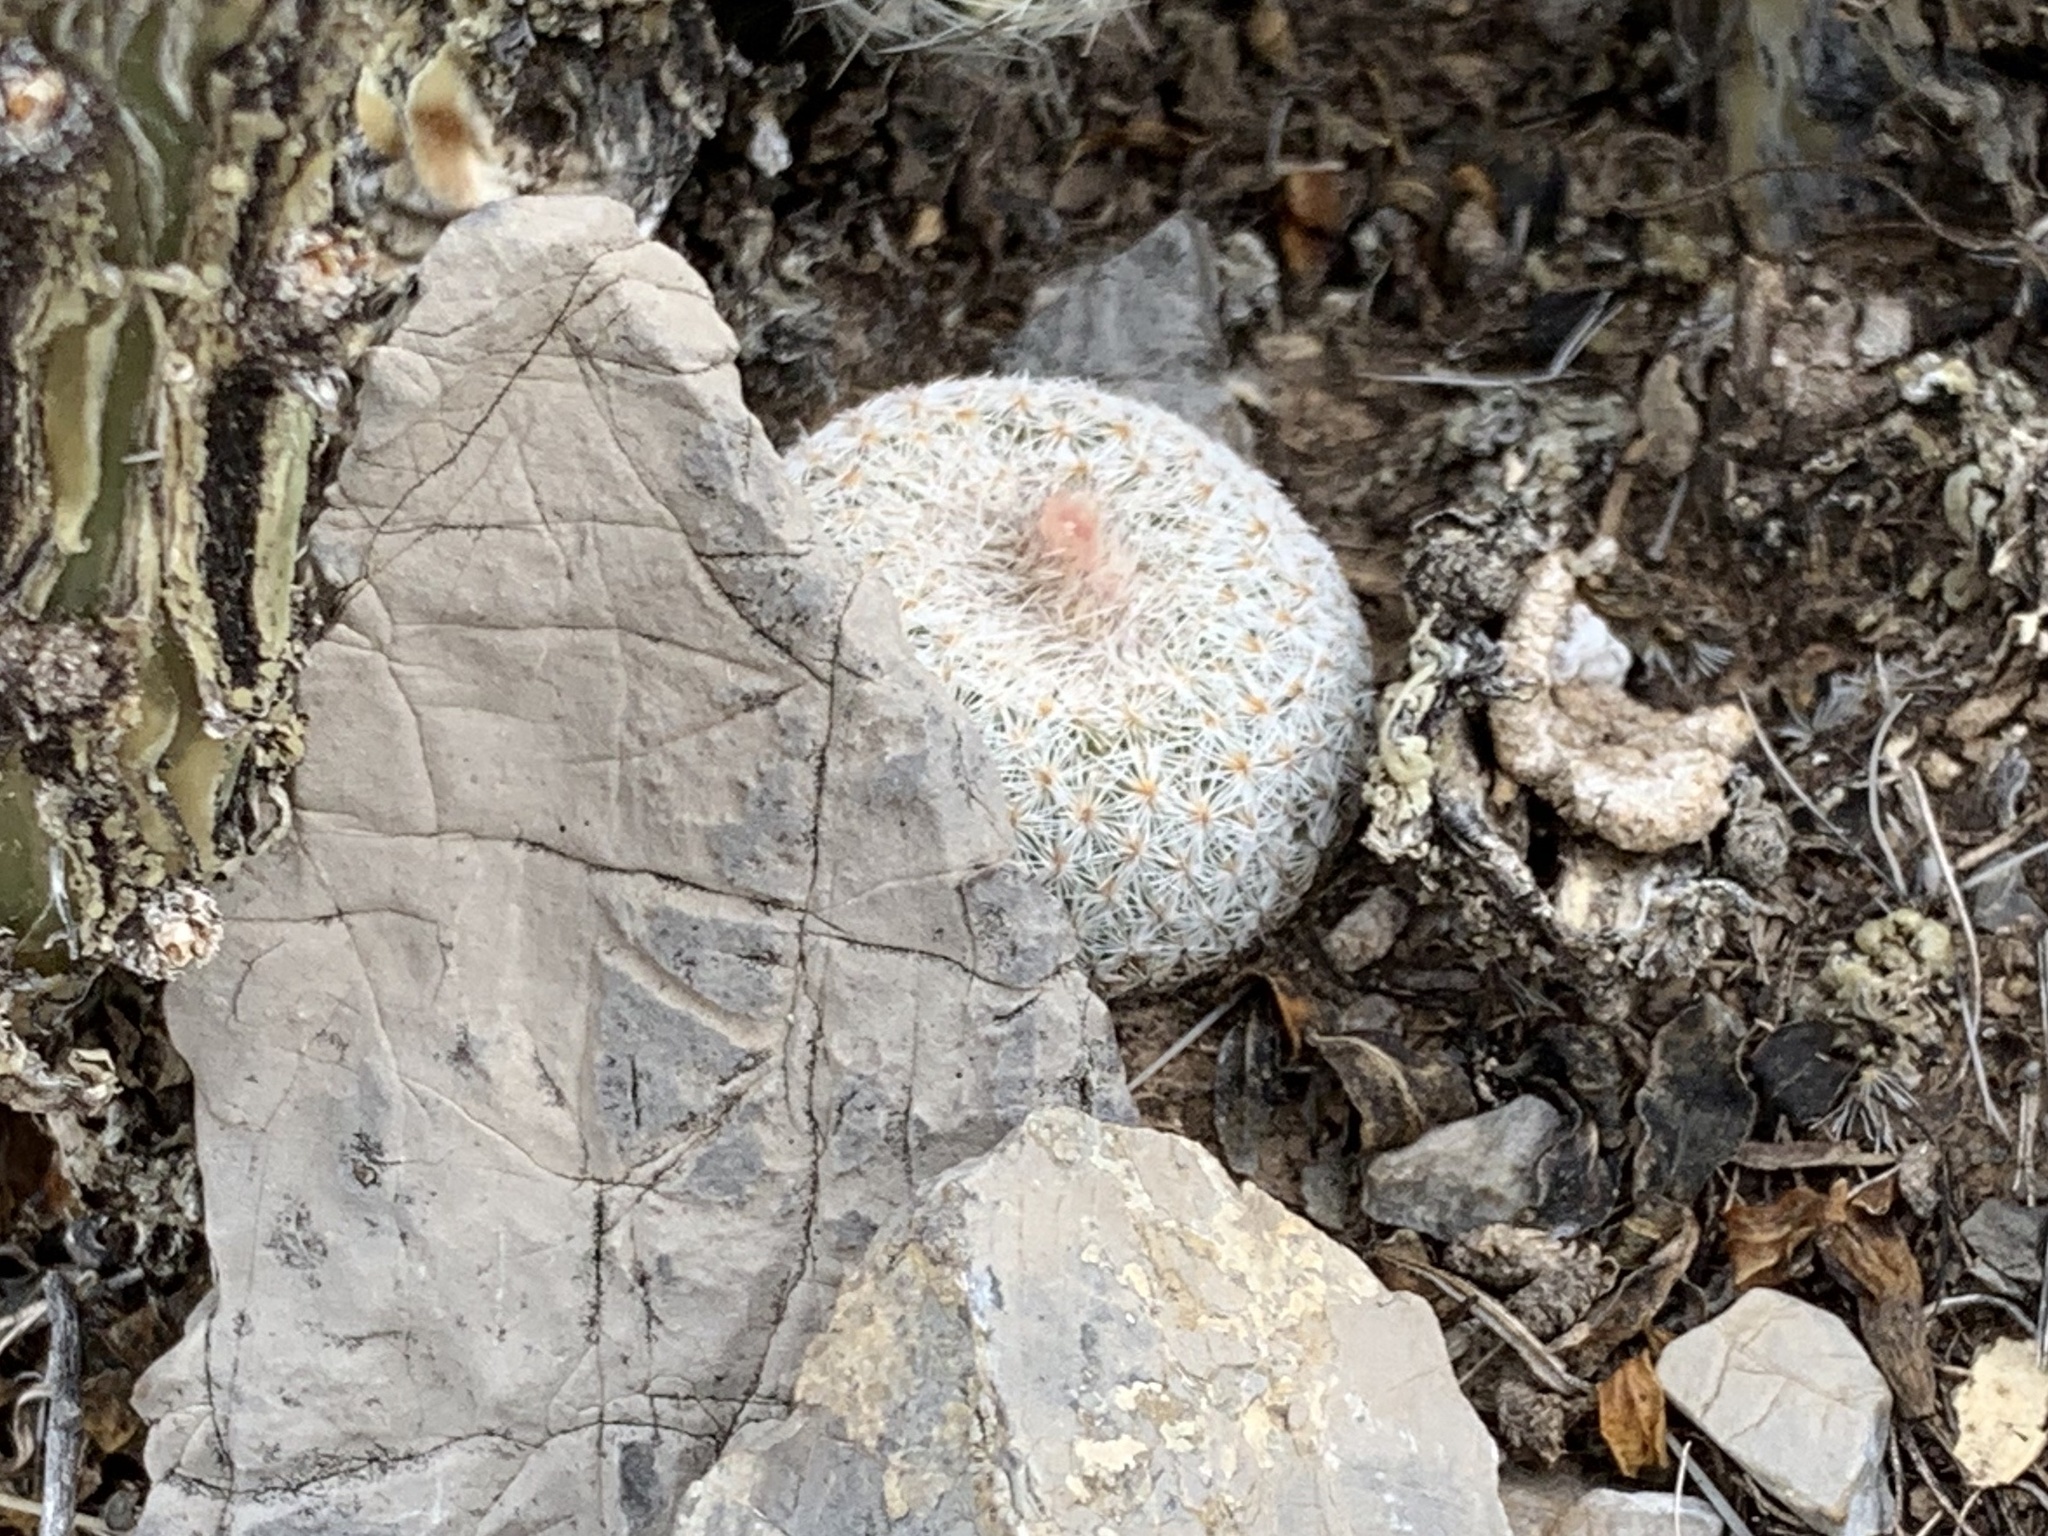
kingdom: Plantae
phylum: Tracheophyta
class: Magnoliopsida
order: Caryophyllales
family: Cactaceae
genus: Epithelantha
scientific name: Epithelantha micromeris
